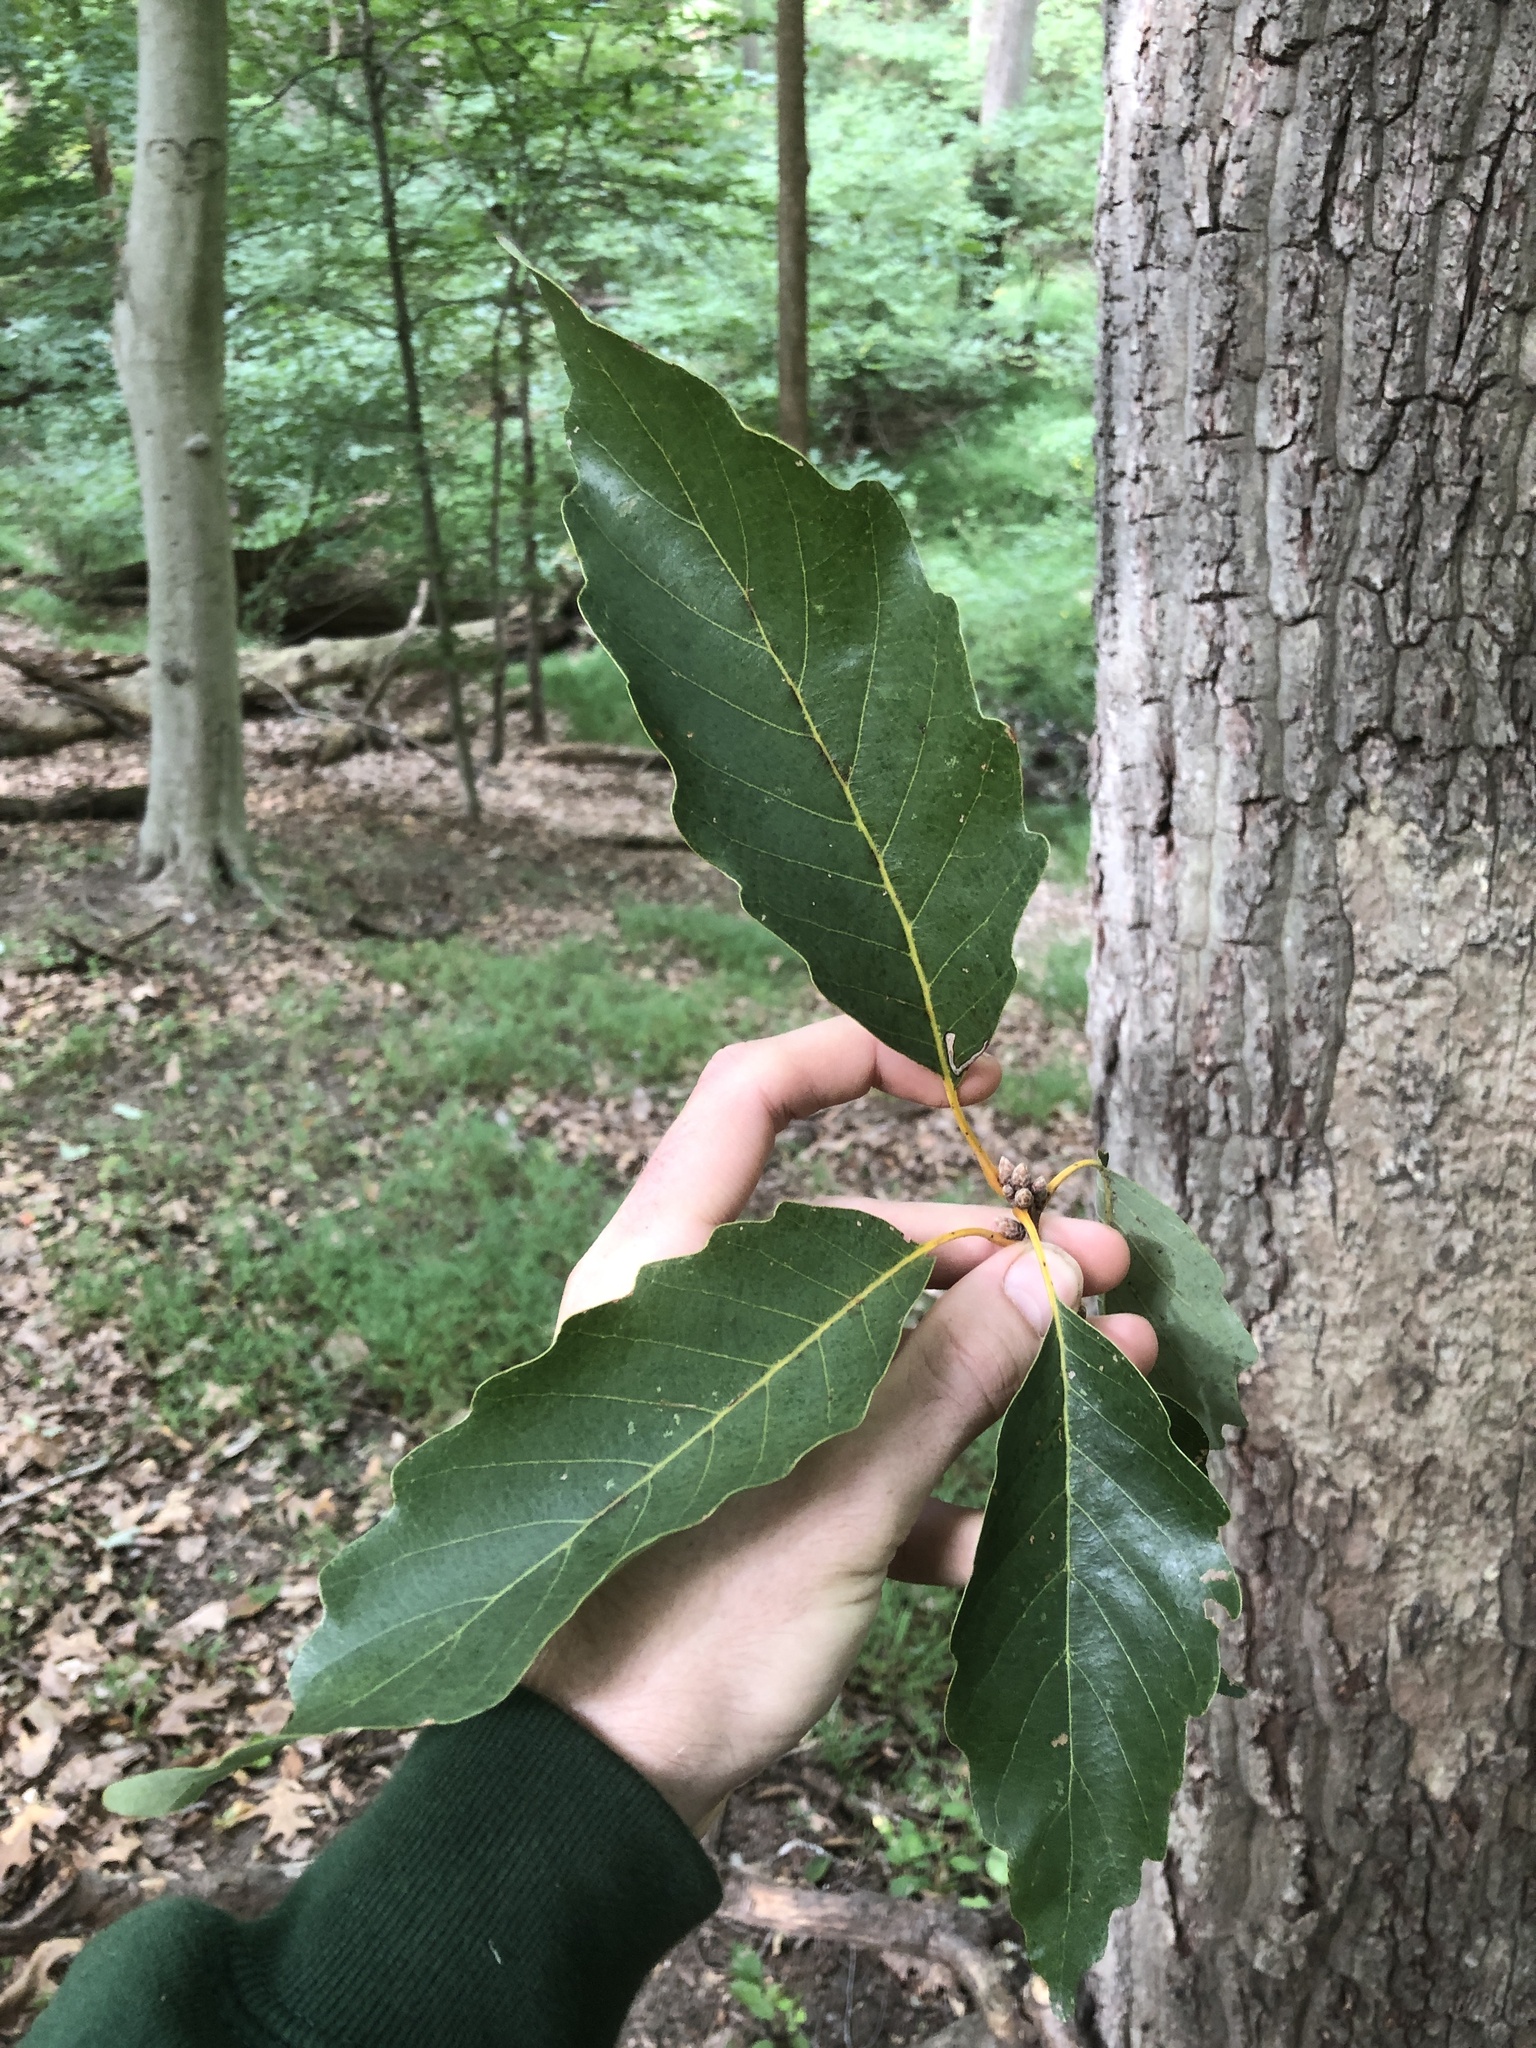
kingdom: Plantae
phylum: Tracheophyta
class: Magnoliopsida
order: Fagales
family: Fagaceae
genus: Quercus
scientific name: Quercus montana
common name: Chestnut oak
